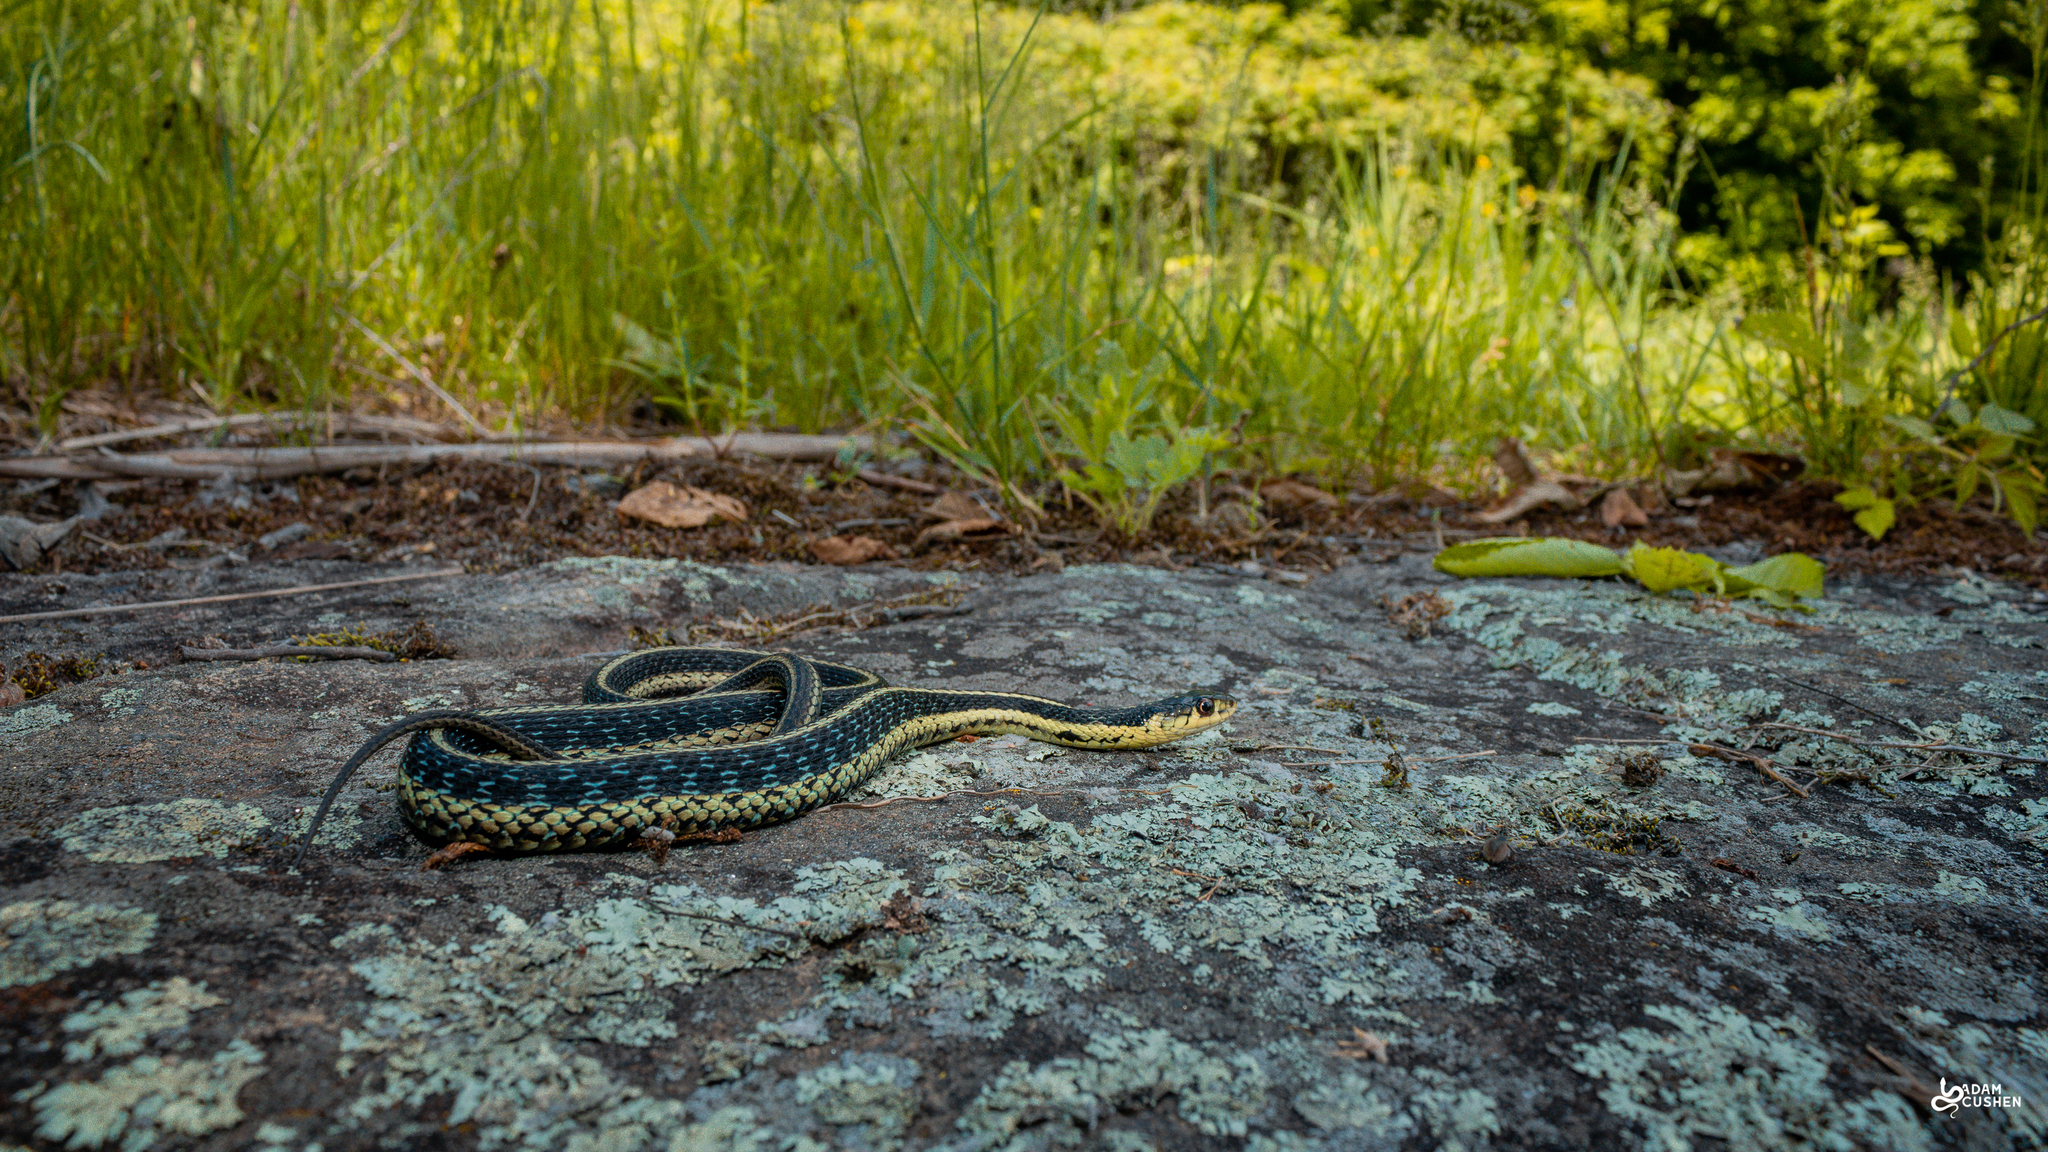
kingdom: Animalia
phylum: Chordata
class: Squamata
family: Colubridae
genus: Thamnophis
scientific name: Thamnophis sirtalis
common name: Common garter snake
